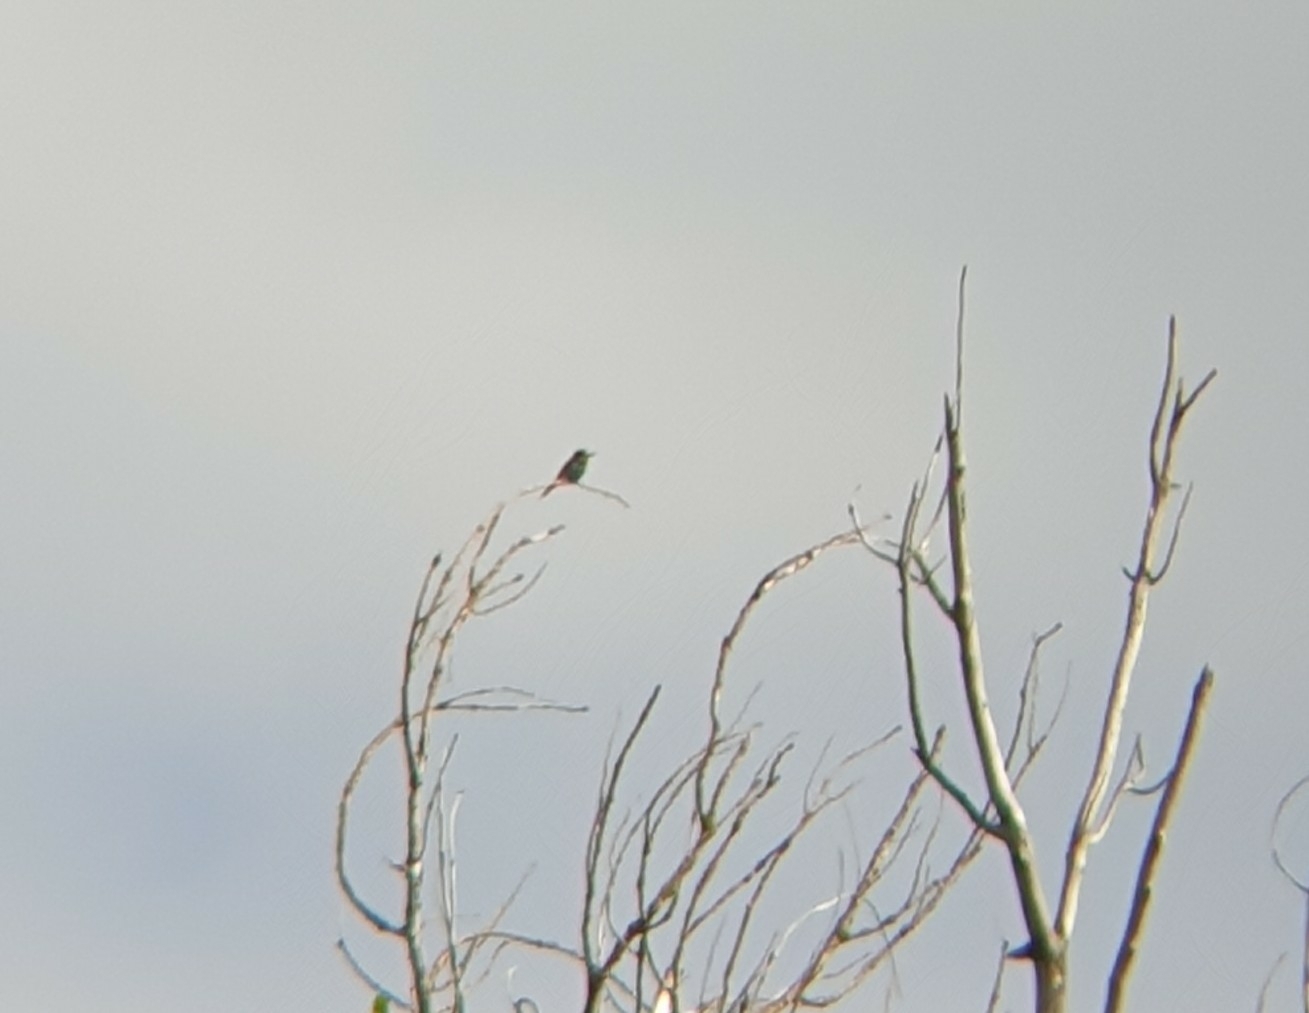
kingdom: Animalia
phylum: Chordata
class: Aves
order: Coraciiformes
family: Meropidae
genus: Merops
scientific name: Merops apiaster
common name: European bee-eater
